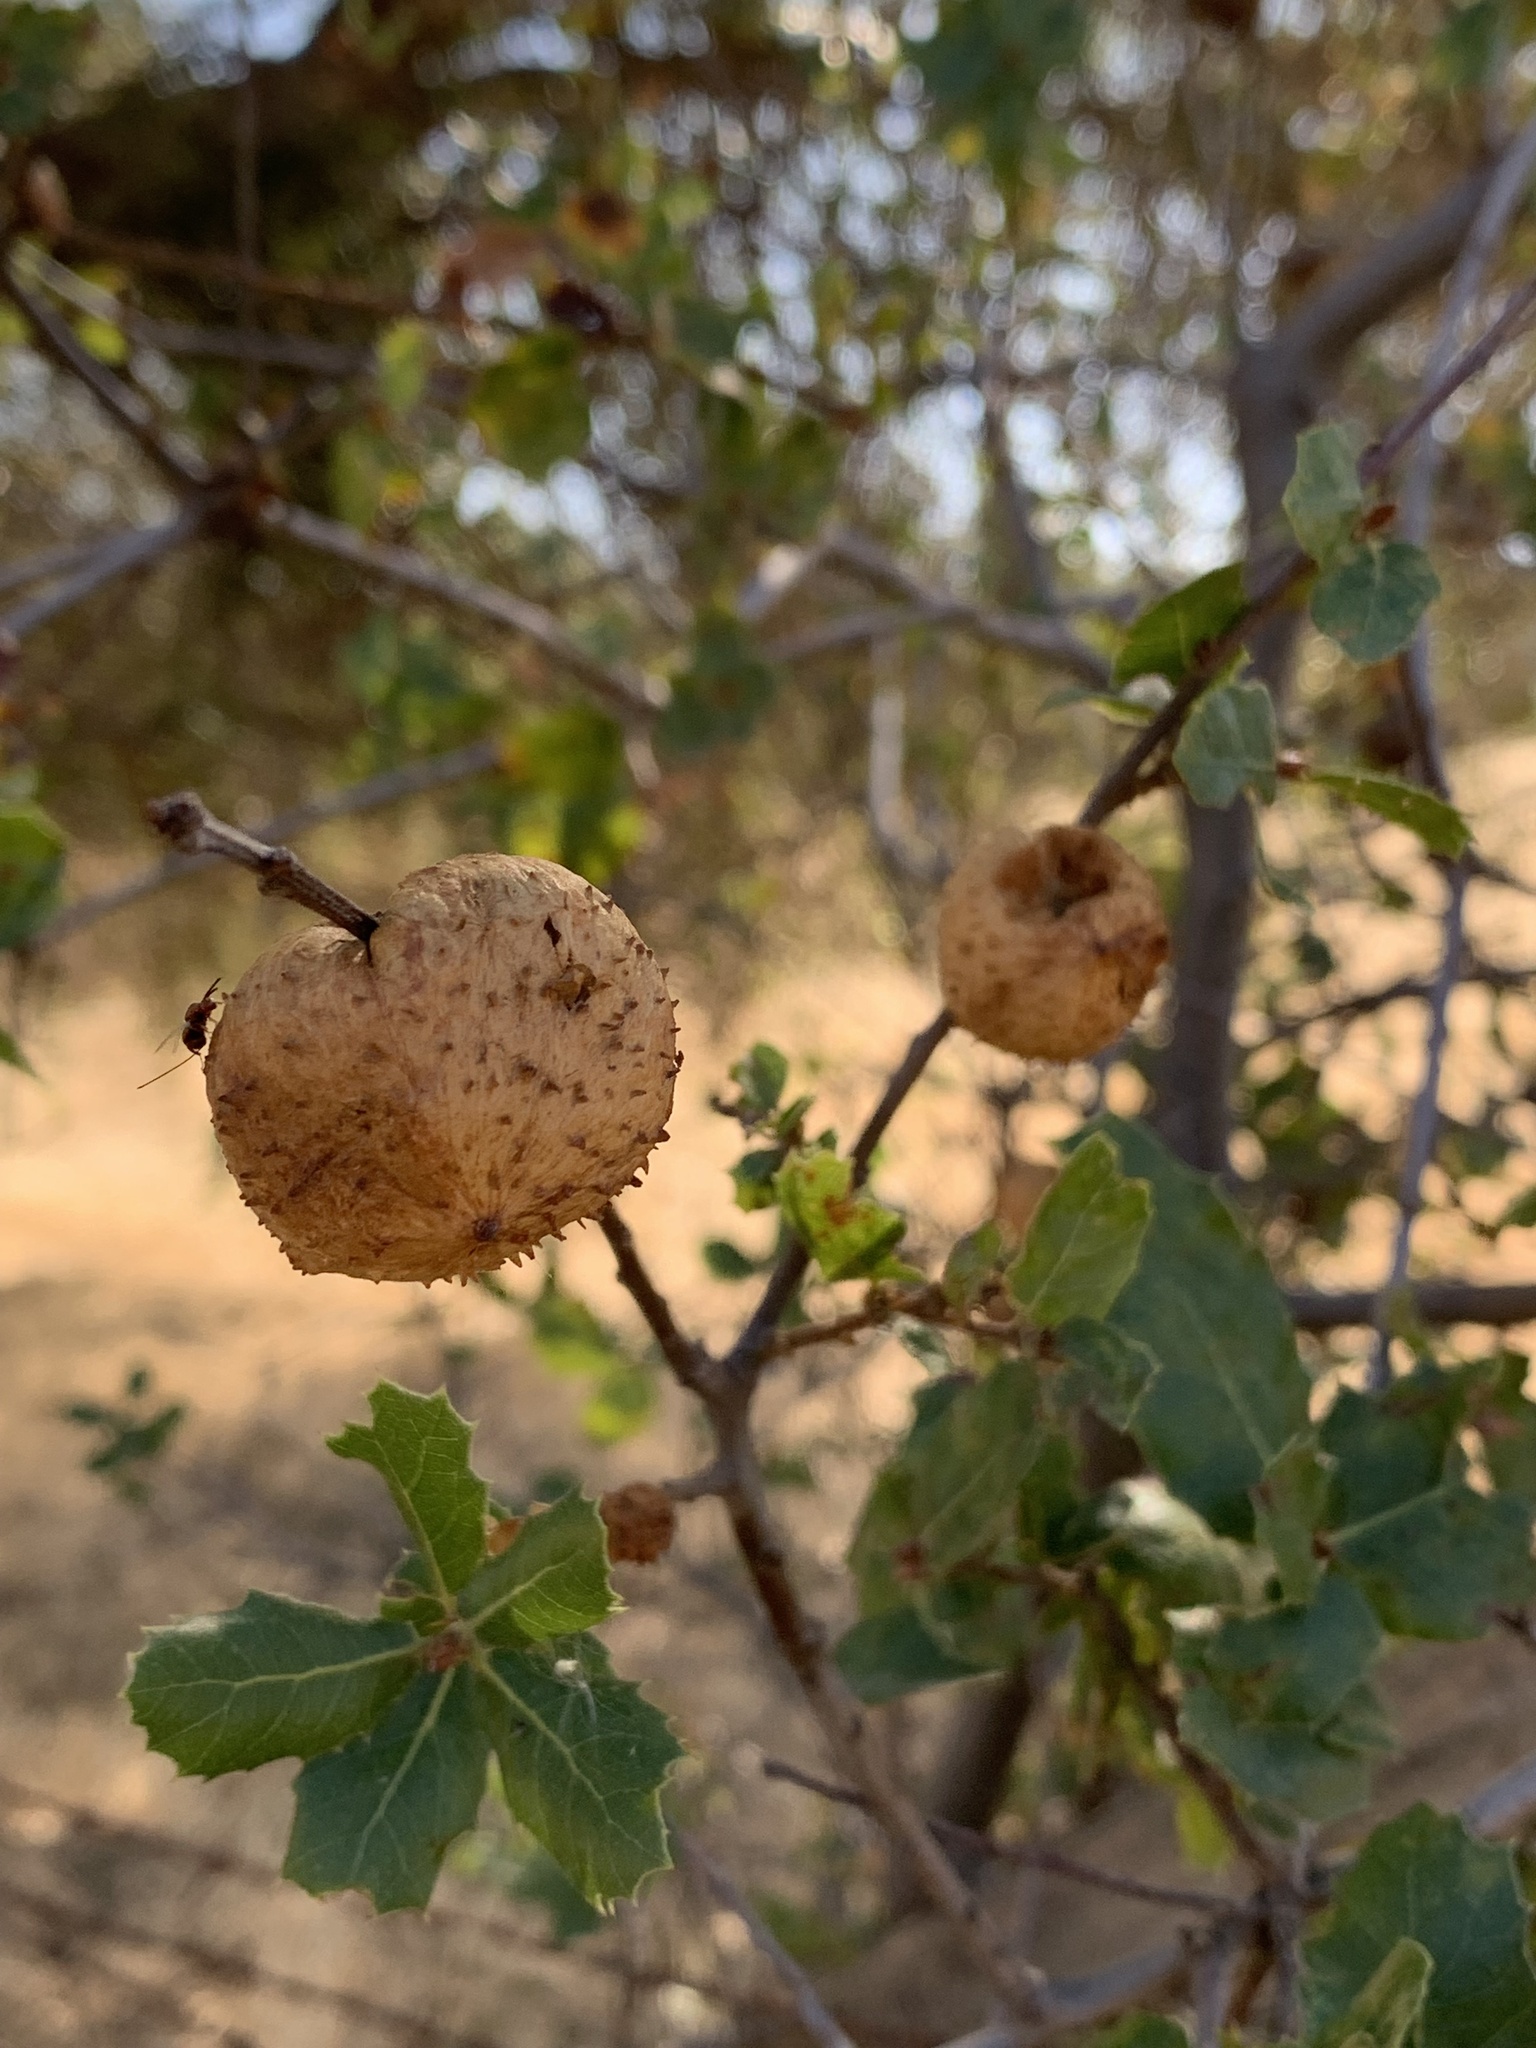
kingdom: Animalia
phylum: Arthropoda
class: Insecta
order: Hymenoptera
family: Cynipidae
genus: Amphibolips
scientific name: Amphibolips quercuspomiformis
